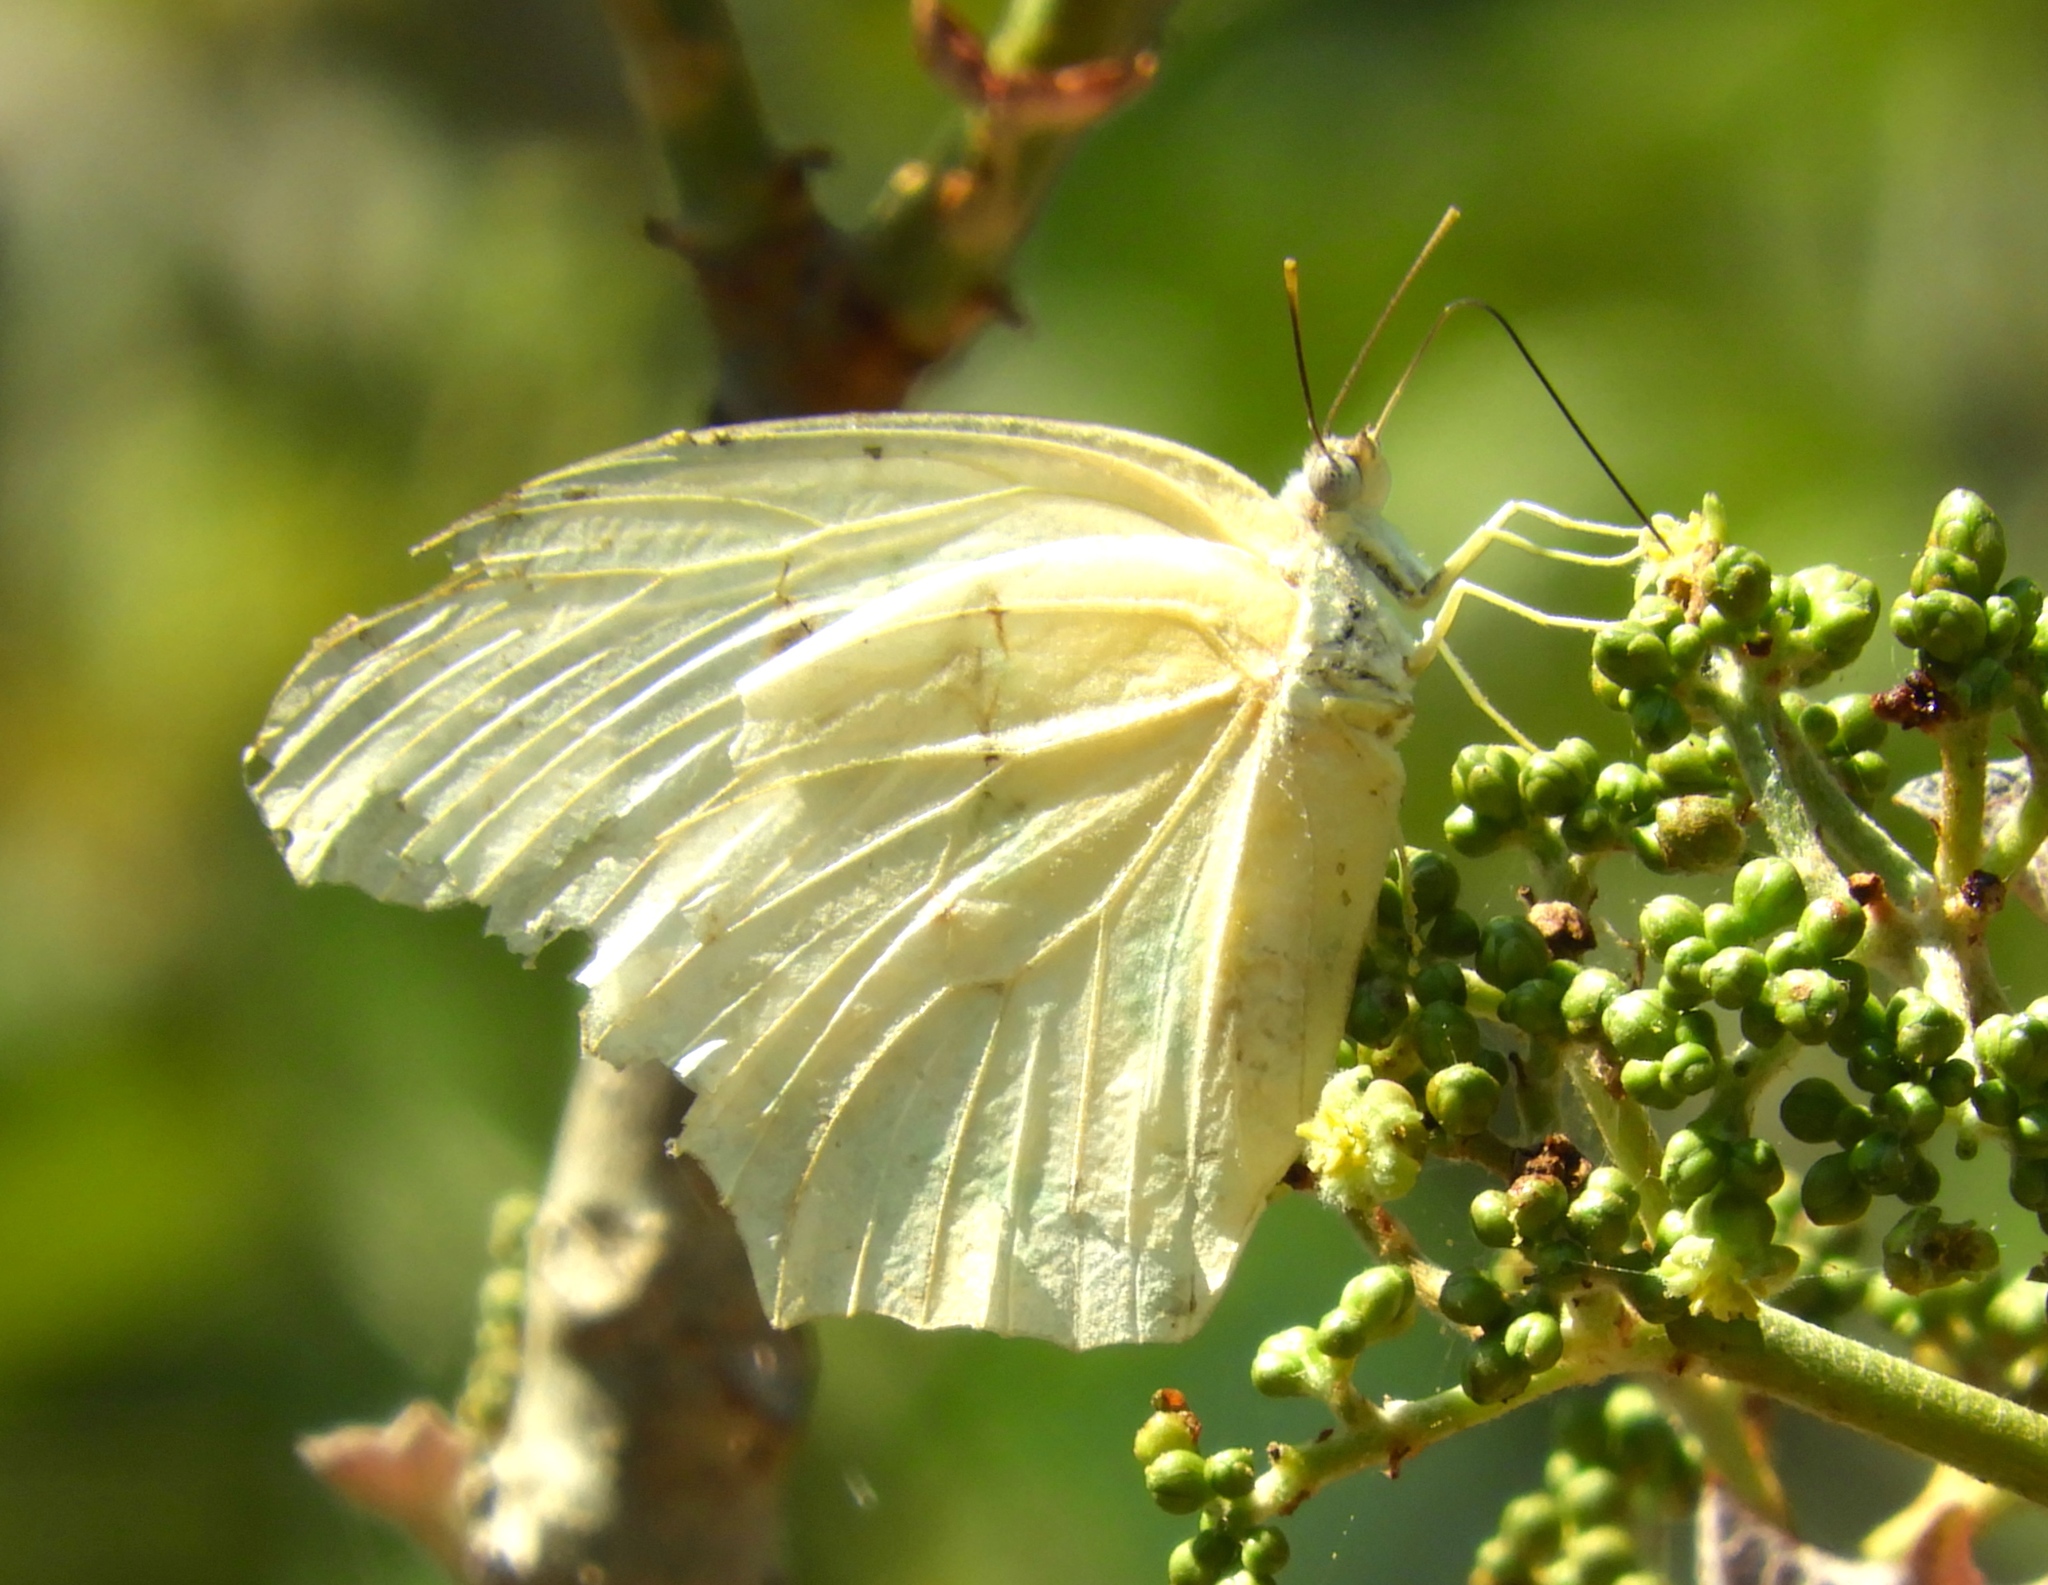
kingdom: Animalia
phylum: Arthropoda
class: Insecta
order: Lepidoptera
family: Pieridae
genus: Anteos
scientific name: Anteos clorinde
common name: White angled sulphur
